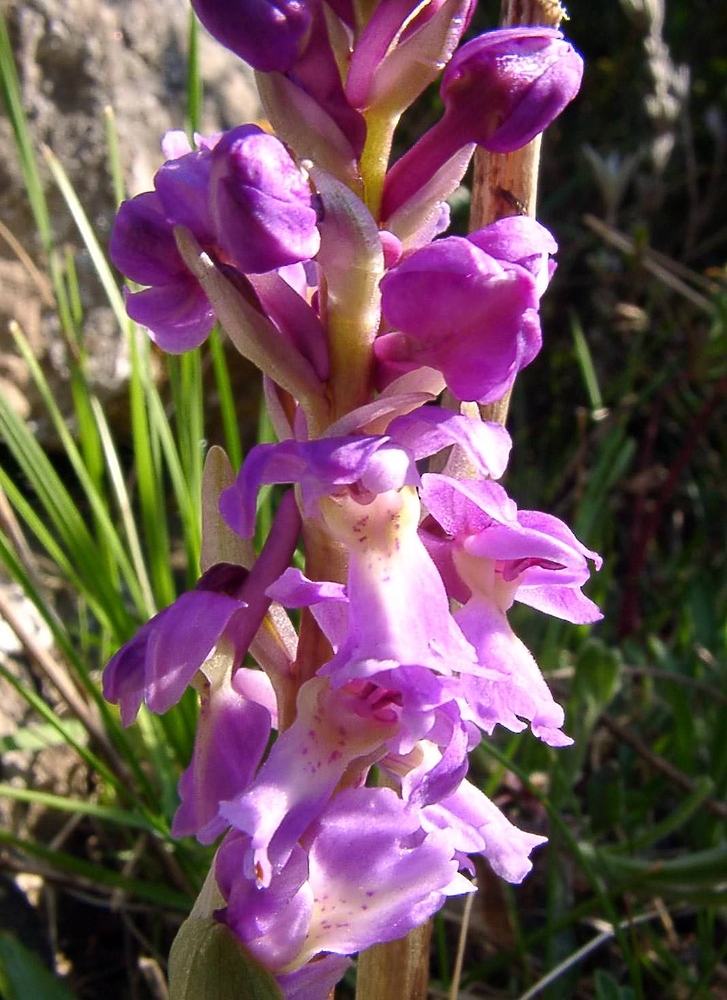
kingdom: Plantae
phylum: Tracheophyta
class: Liliopsida
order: Asparagales
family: Orchidaceae
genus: Orchis
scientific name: Orchis mascula
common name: Early-purple orchid
